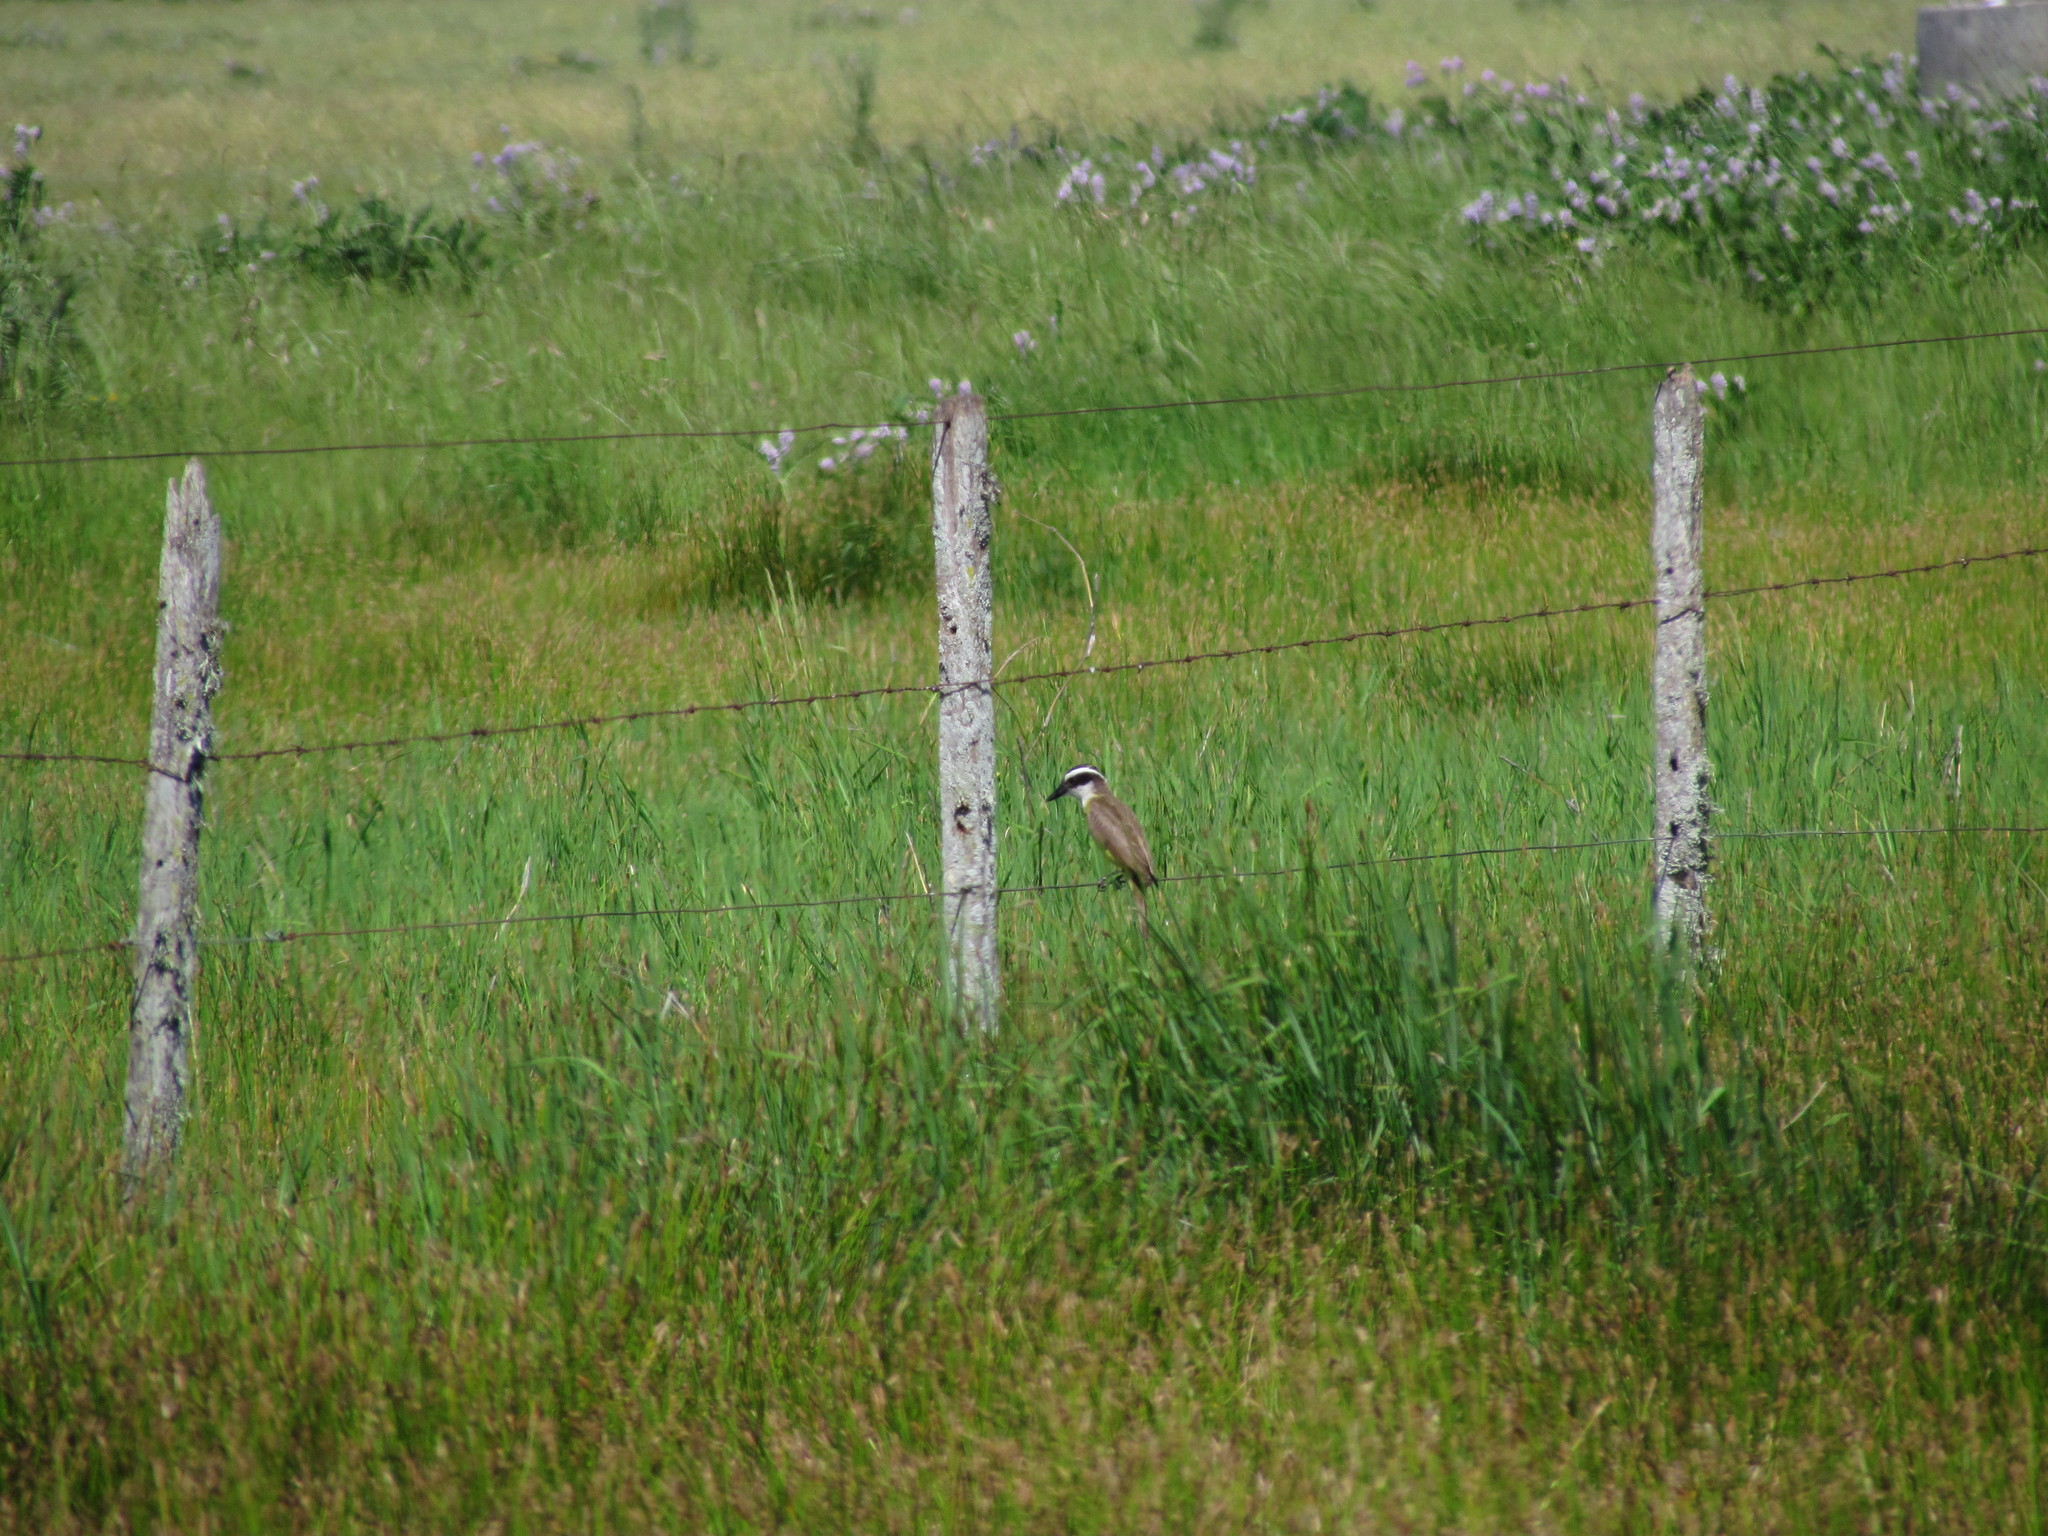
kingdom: Animalia
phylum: Chordata
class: Aves
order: Passeriformes
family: Tyrannidae
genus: Pitangus
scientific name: Pitangus sulphuratus
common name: Great kiskadee
